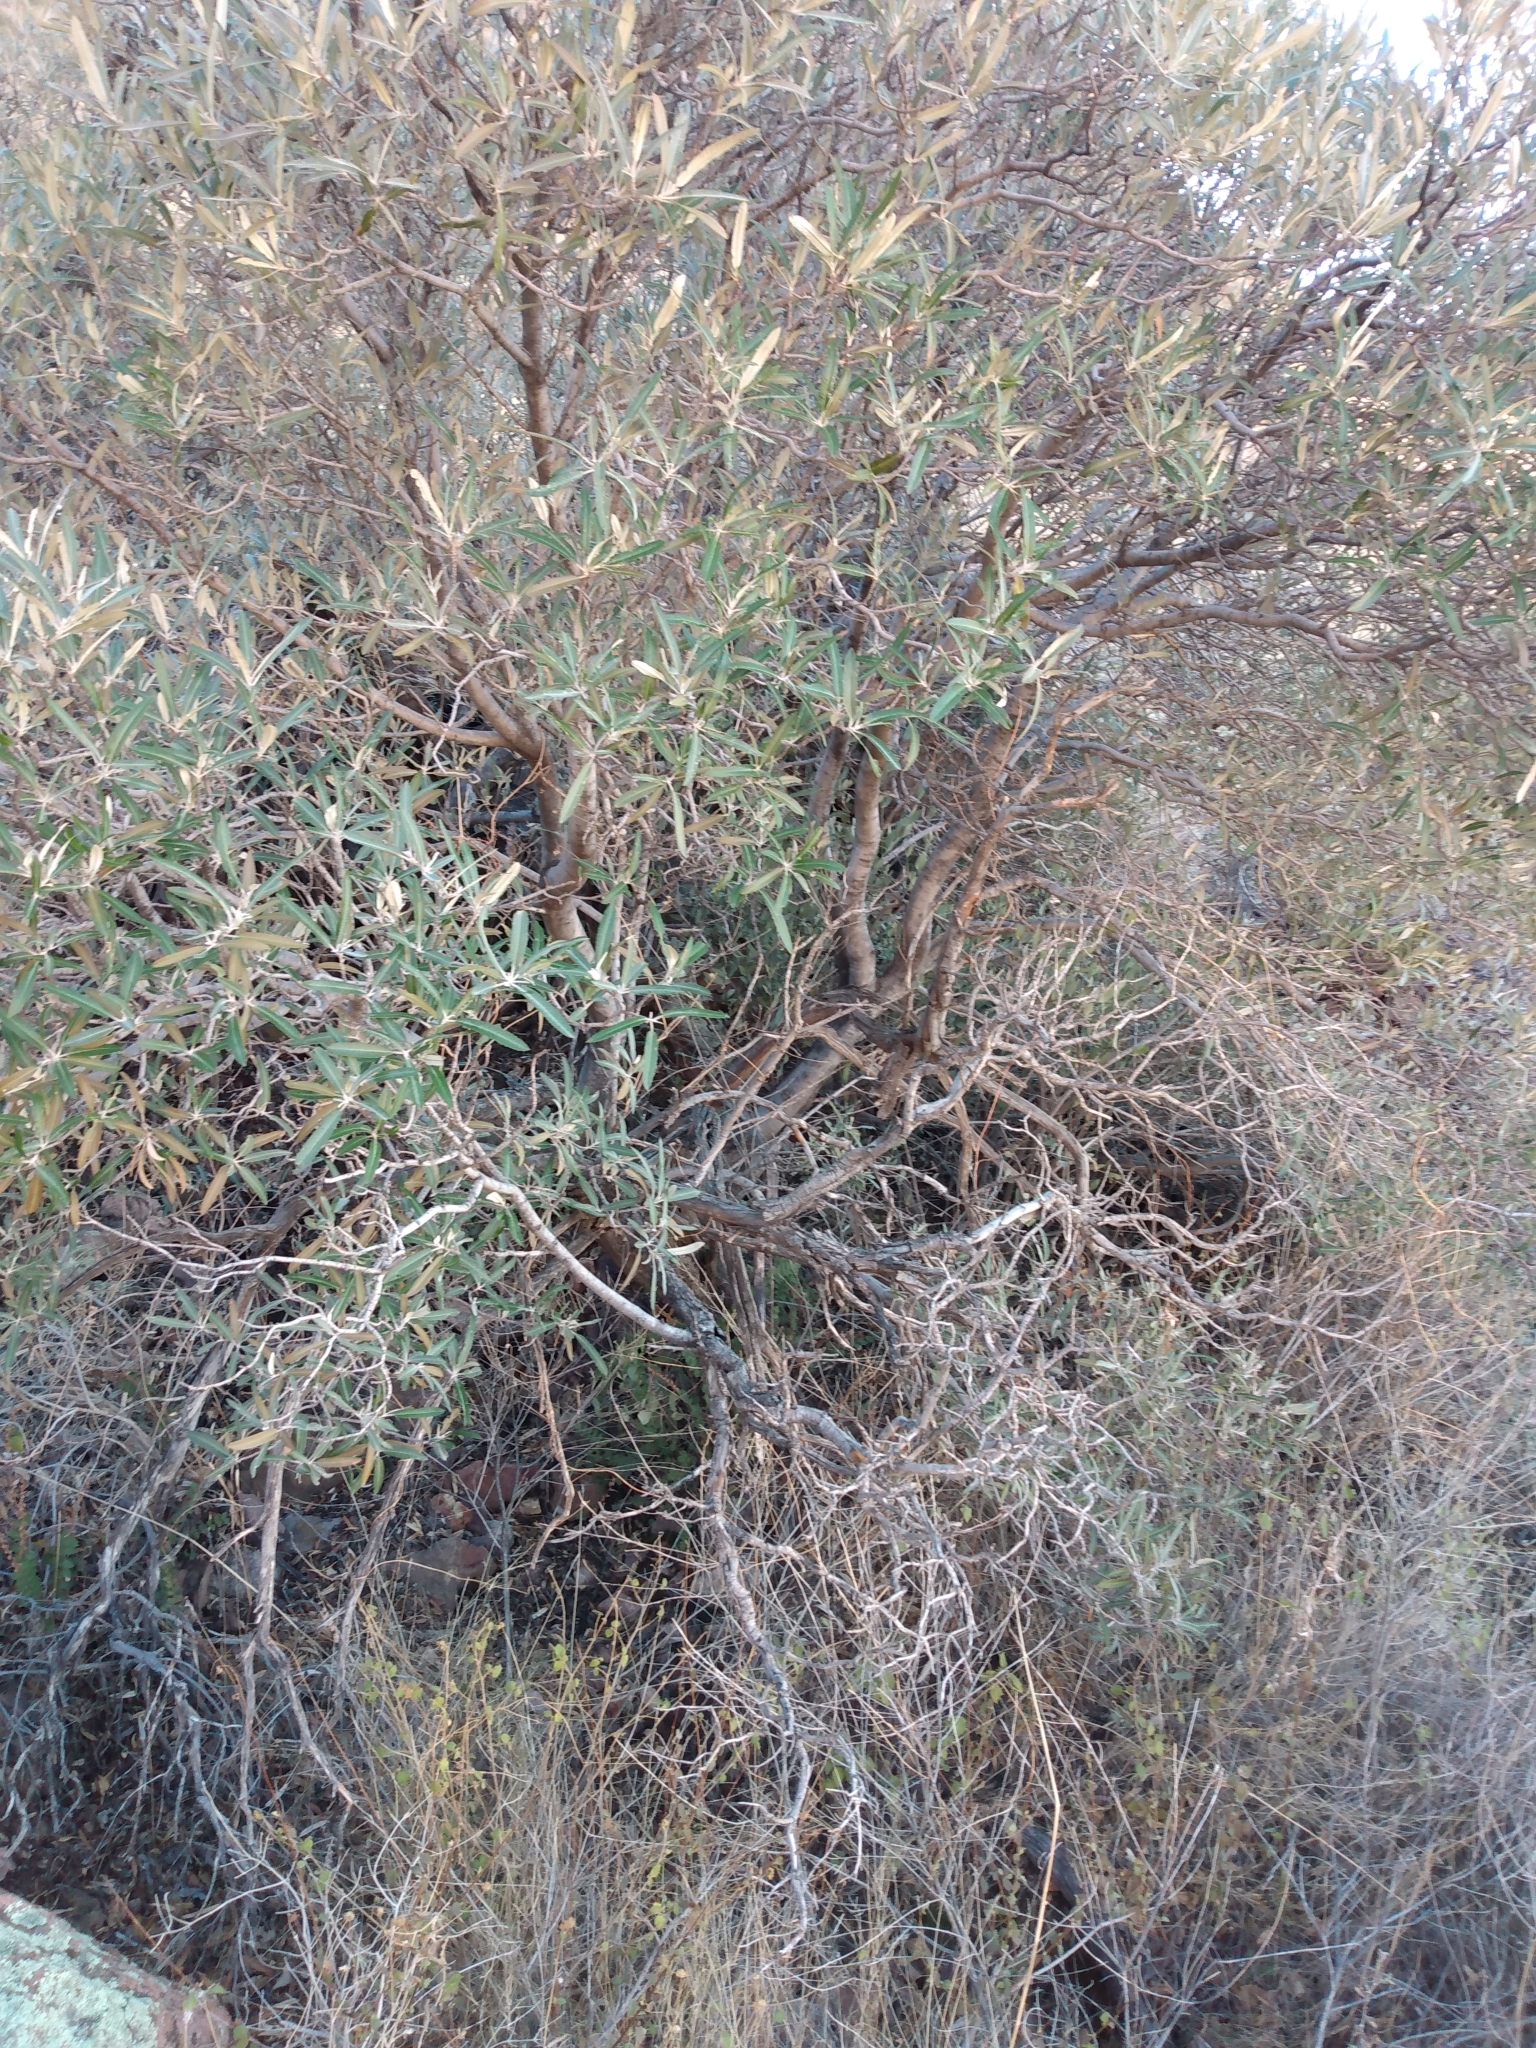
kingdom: Plantae
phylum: Tracheophyta
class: Magnoliopsida
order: Rosales
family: Rosaceae
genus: Vauquelinia
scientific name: Vauquelinia californica
